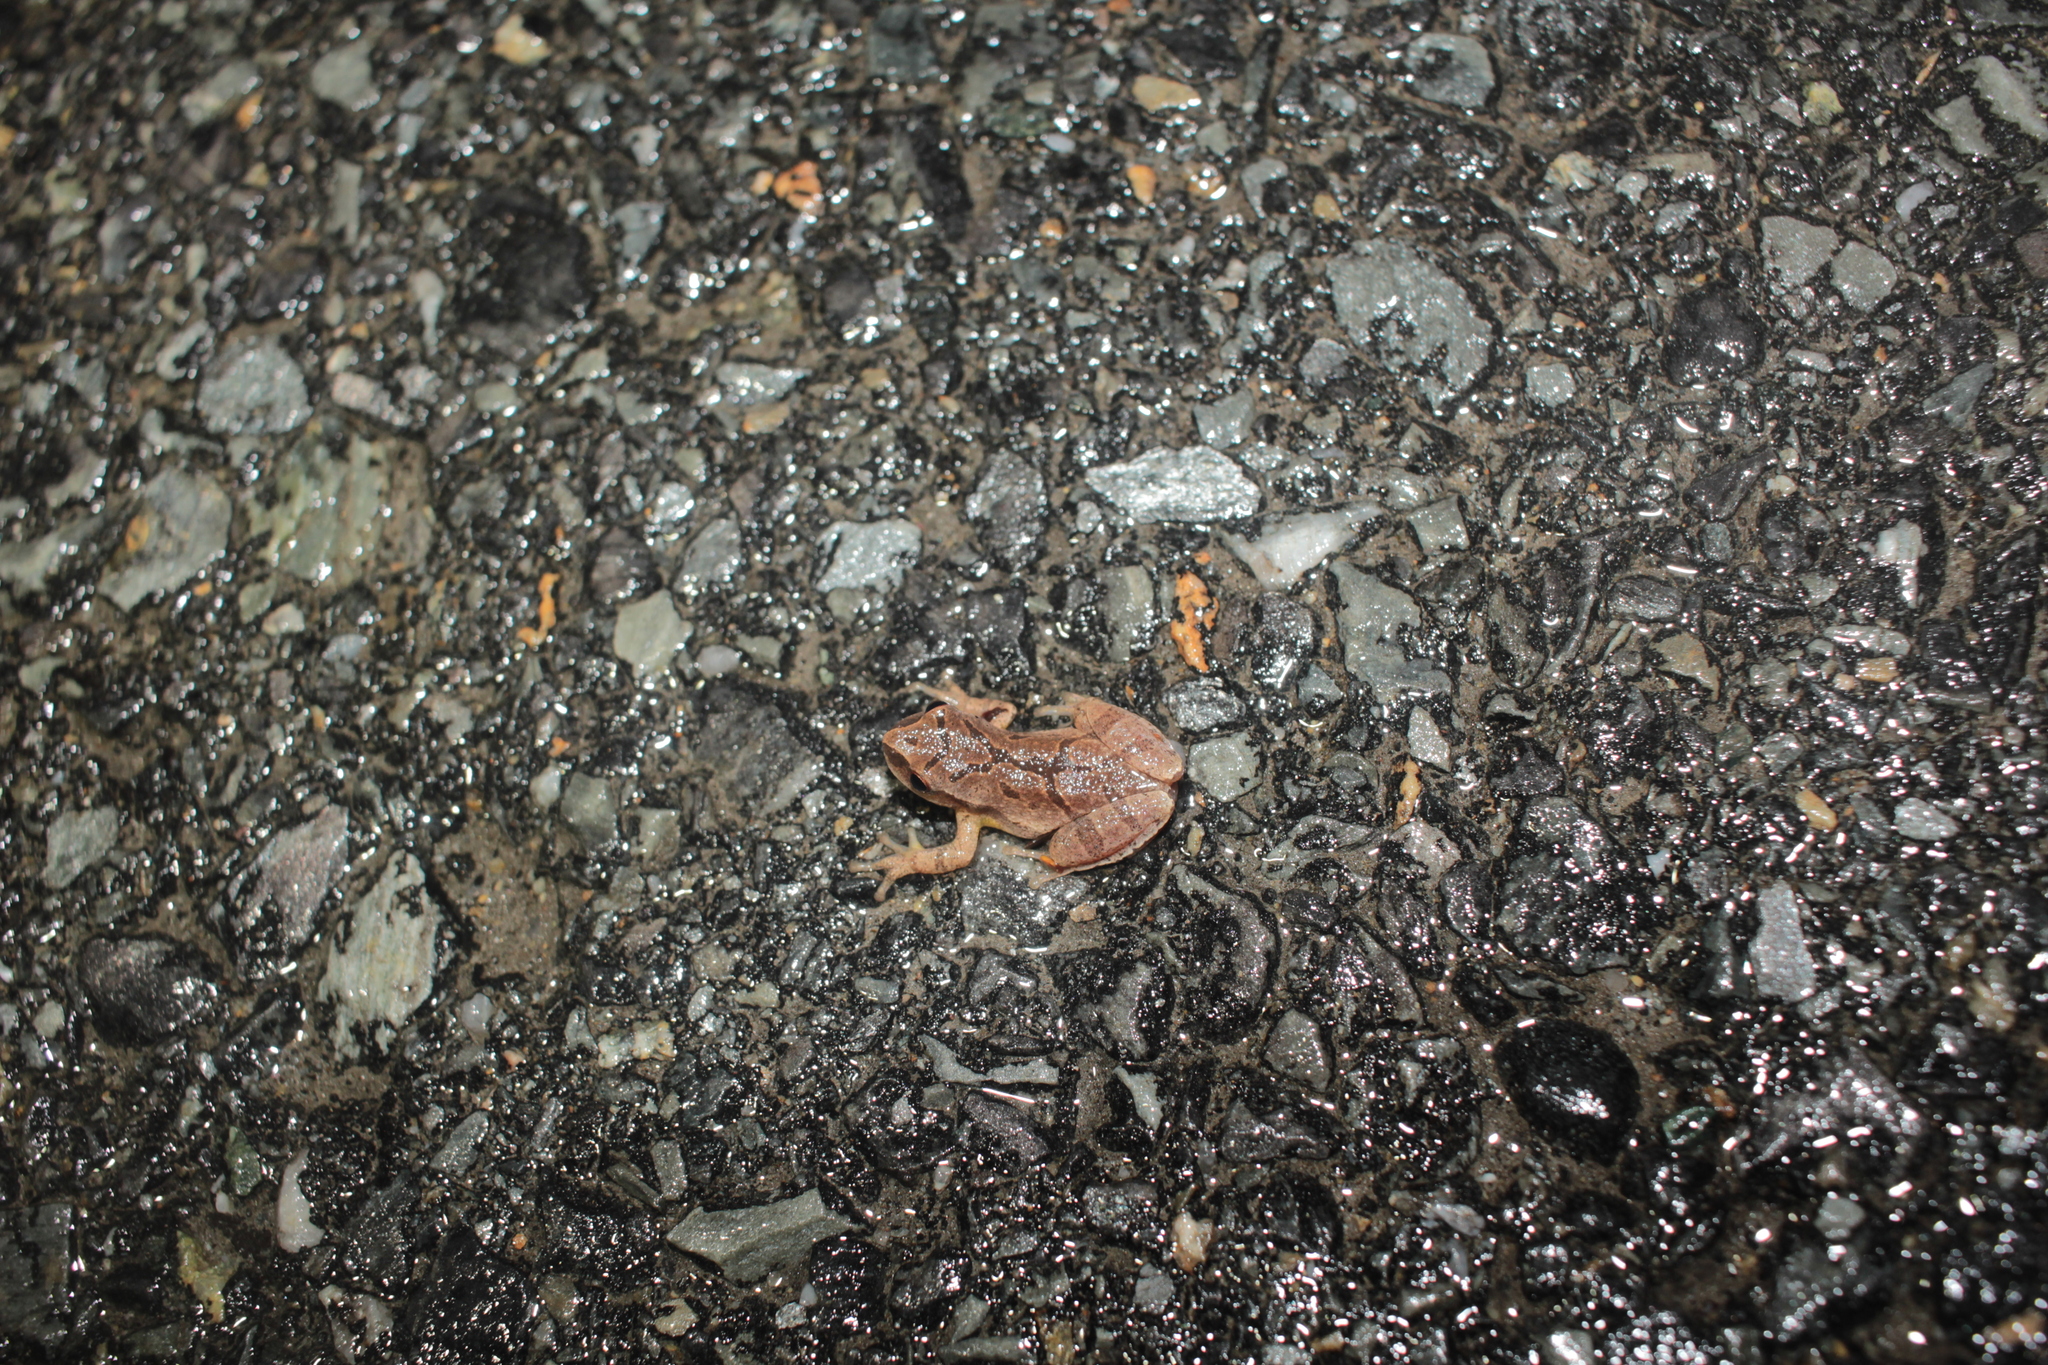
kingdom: Animalia
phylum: Chordata
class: Amphibia
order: Anura
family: Hylidae
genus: Pseudacris
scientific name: Pseudacris crucifer
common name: Spring peeper
